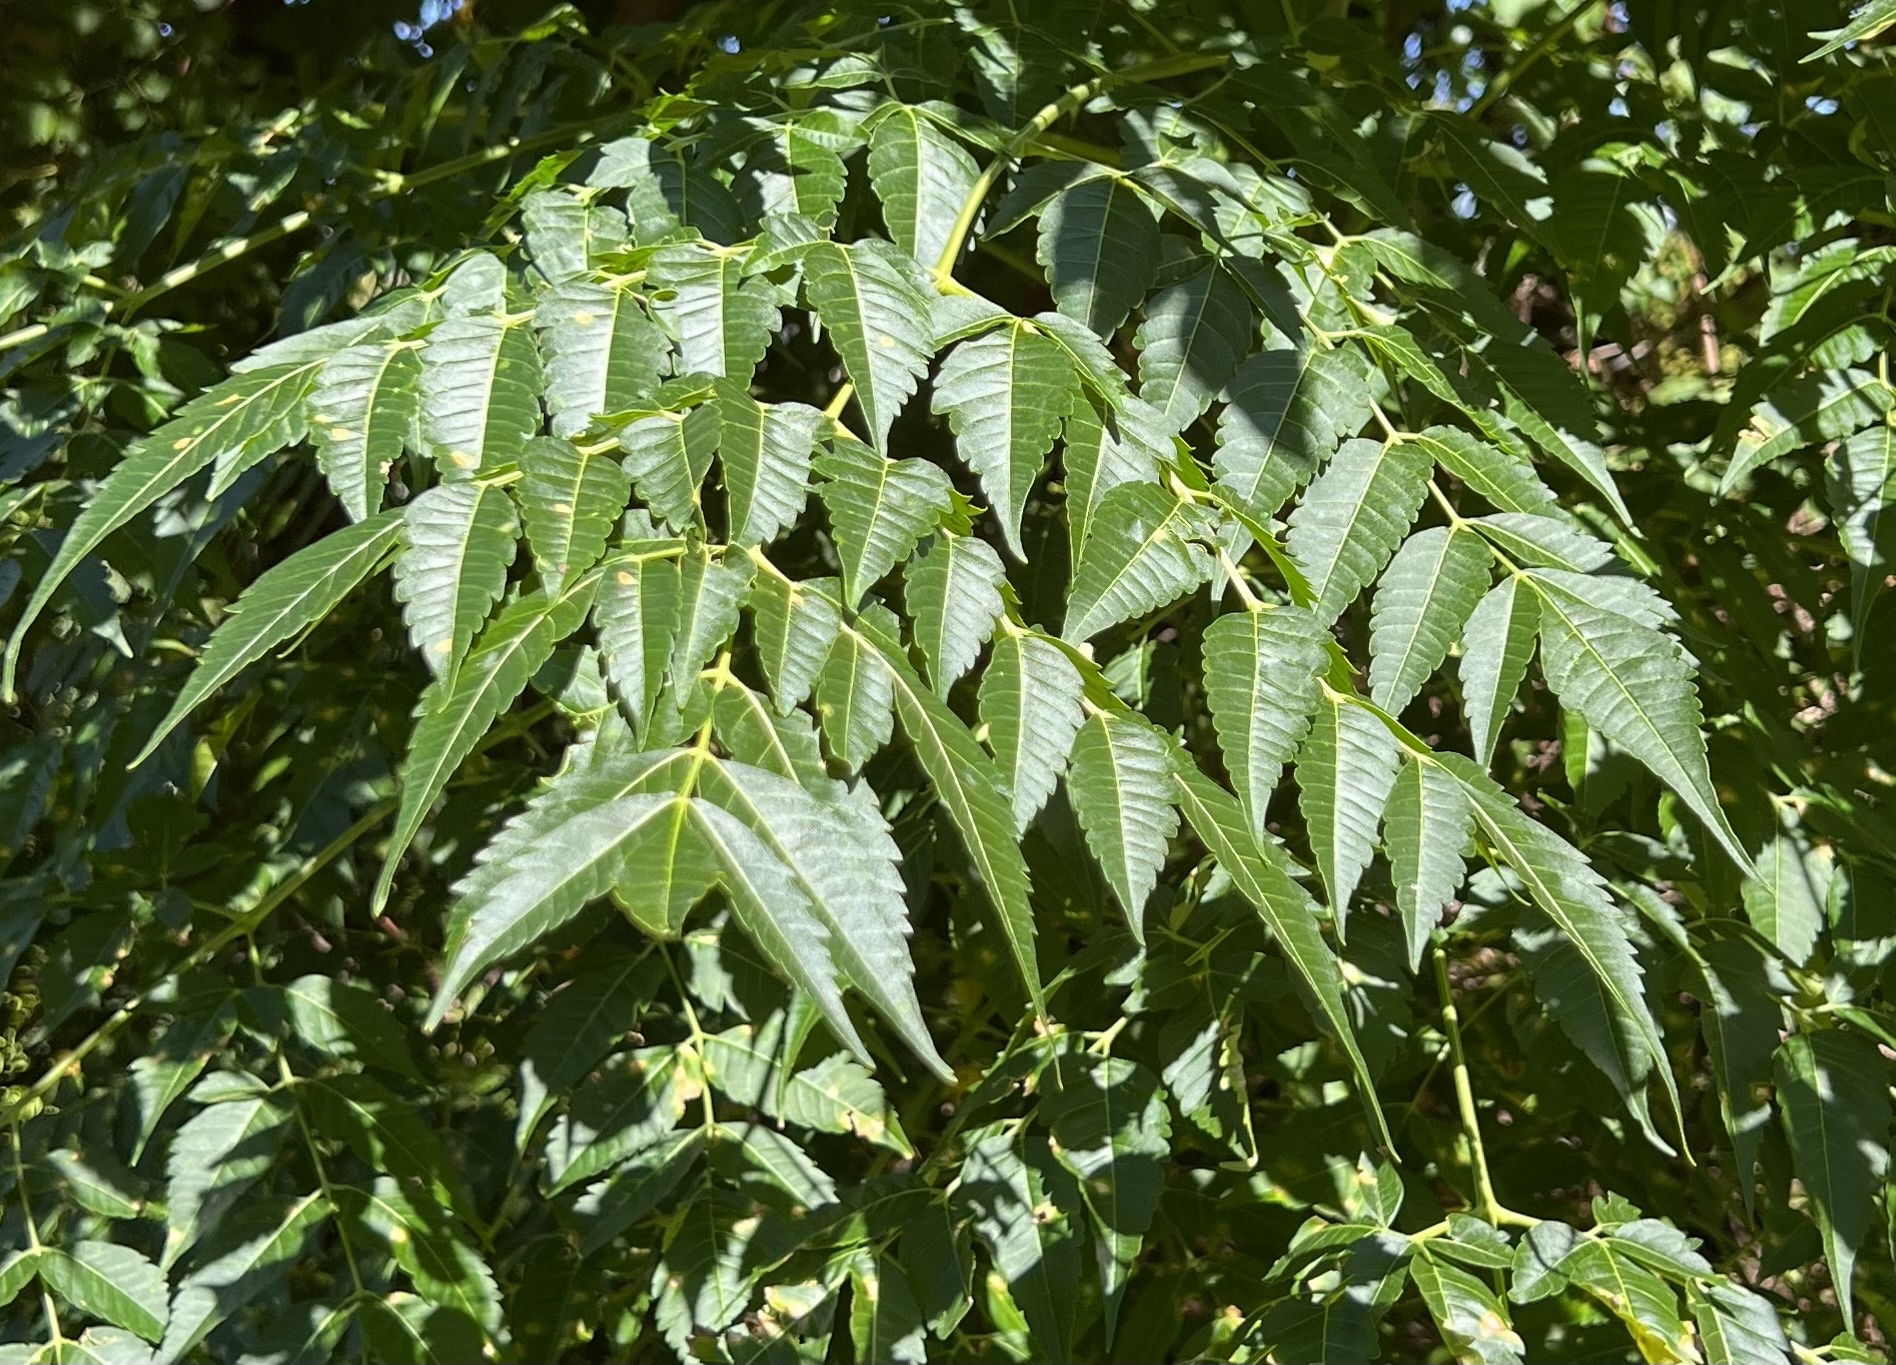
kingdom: Plantae
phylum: Tracheophyta
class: Magnoliopsida
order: Sapindales
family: Meliaceae
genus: Melia
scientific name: Melia azedarach
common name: Chinaberrytree
